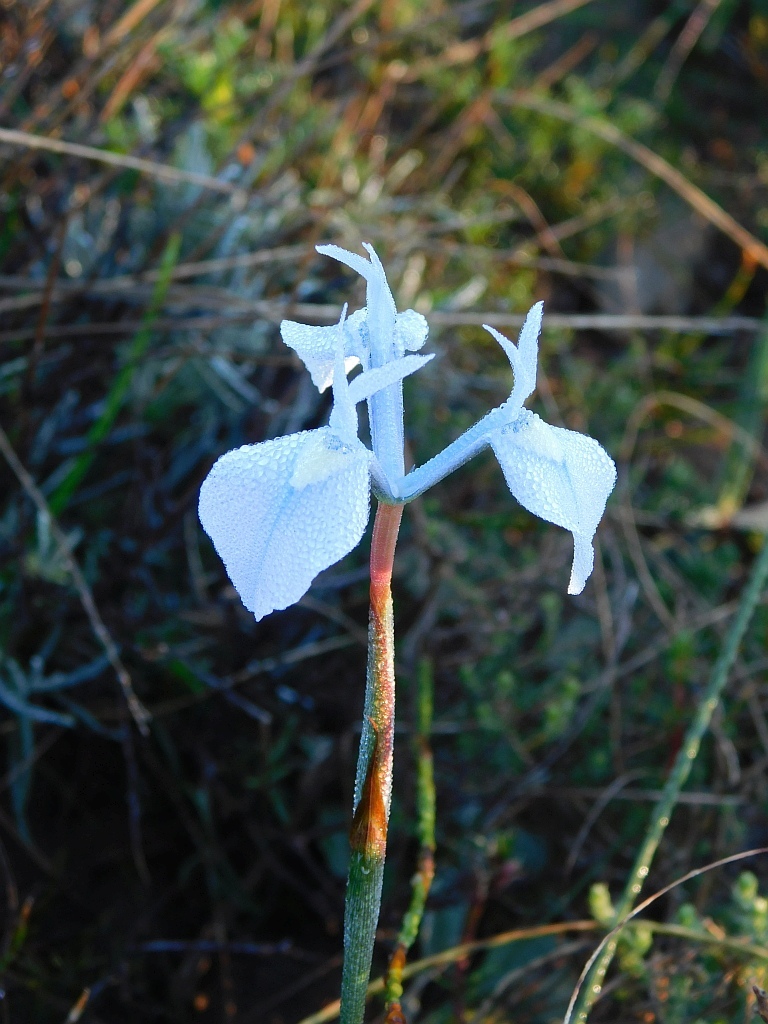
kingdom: Plantae
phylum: Tracheophyta
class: Liliopsida
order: Asparagales
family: Iridaceae
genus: Moraea
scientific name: Moraea tripetala
